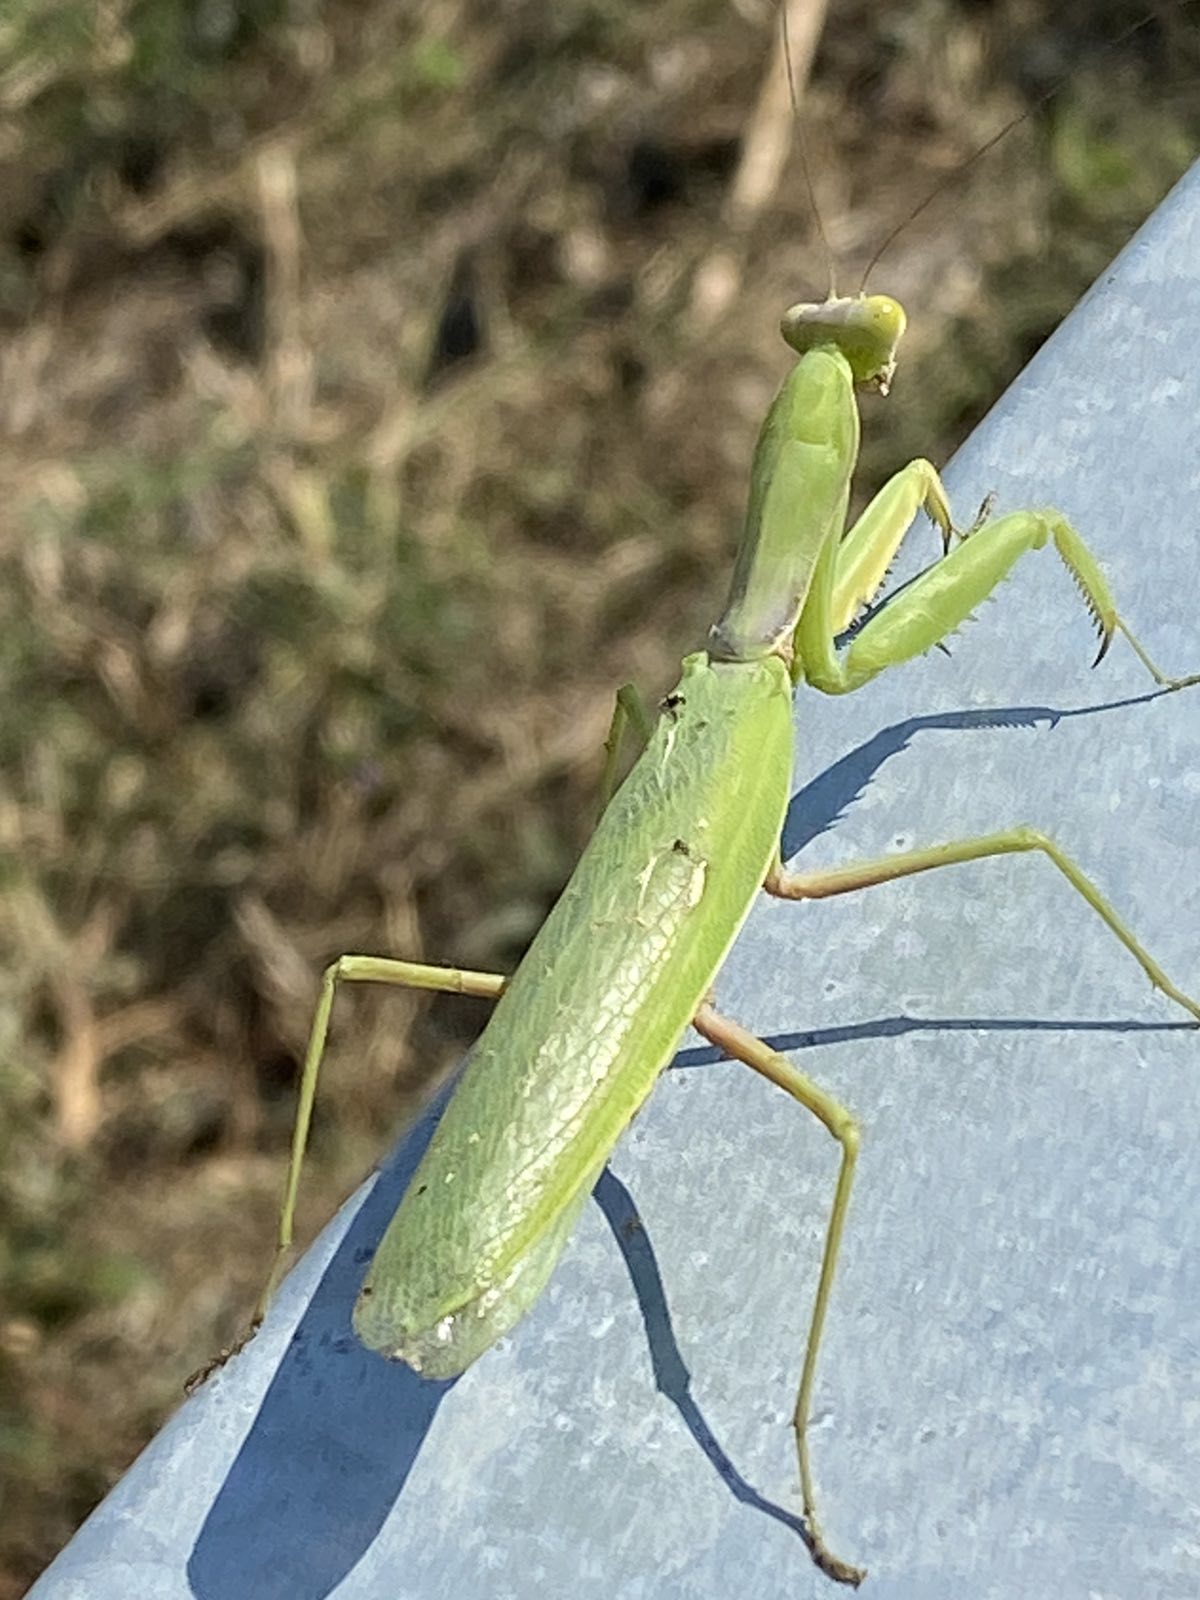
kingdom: Animalia
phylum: Arthropoda
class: Insecta
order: Mantodea
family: Mantidae
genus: Hierodula
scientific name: Hierodula transcaucasica
